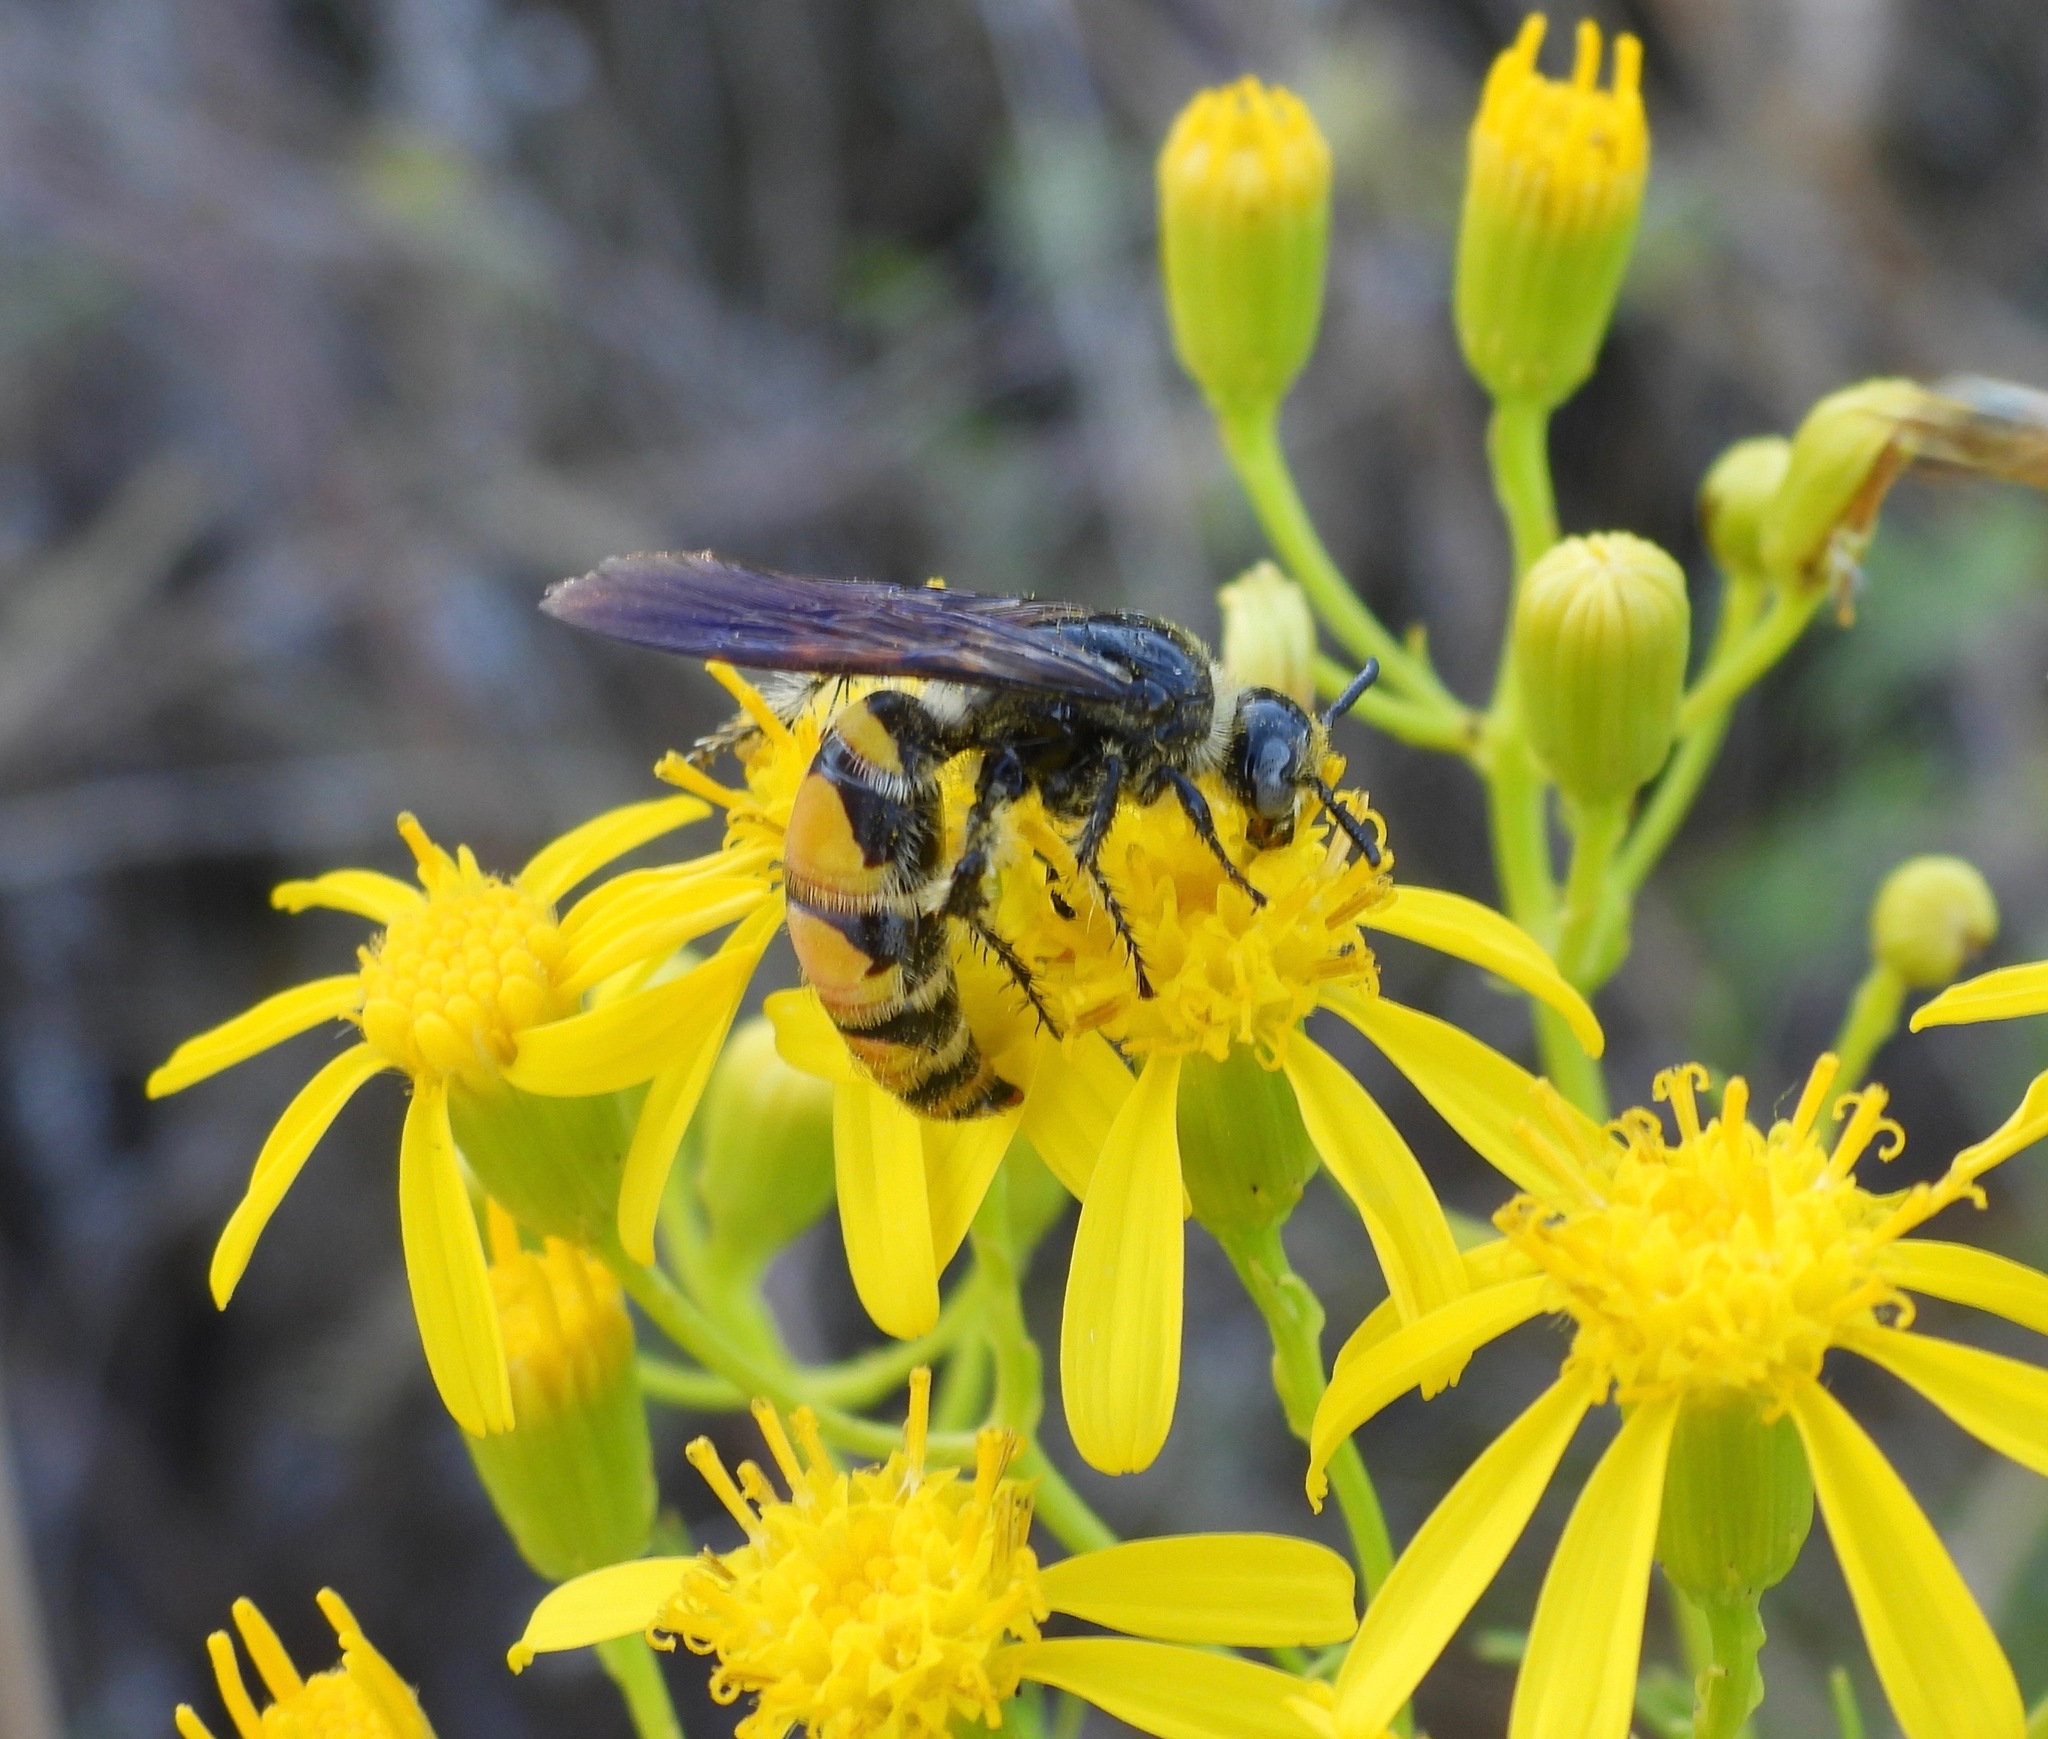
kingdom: Animalia
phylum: Arthropoda
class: Insecta
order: Hymenoptera
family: Scoliidae
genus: Dielis
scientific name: Dielis
